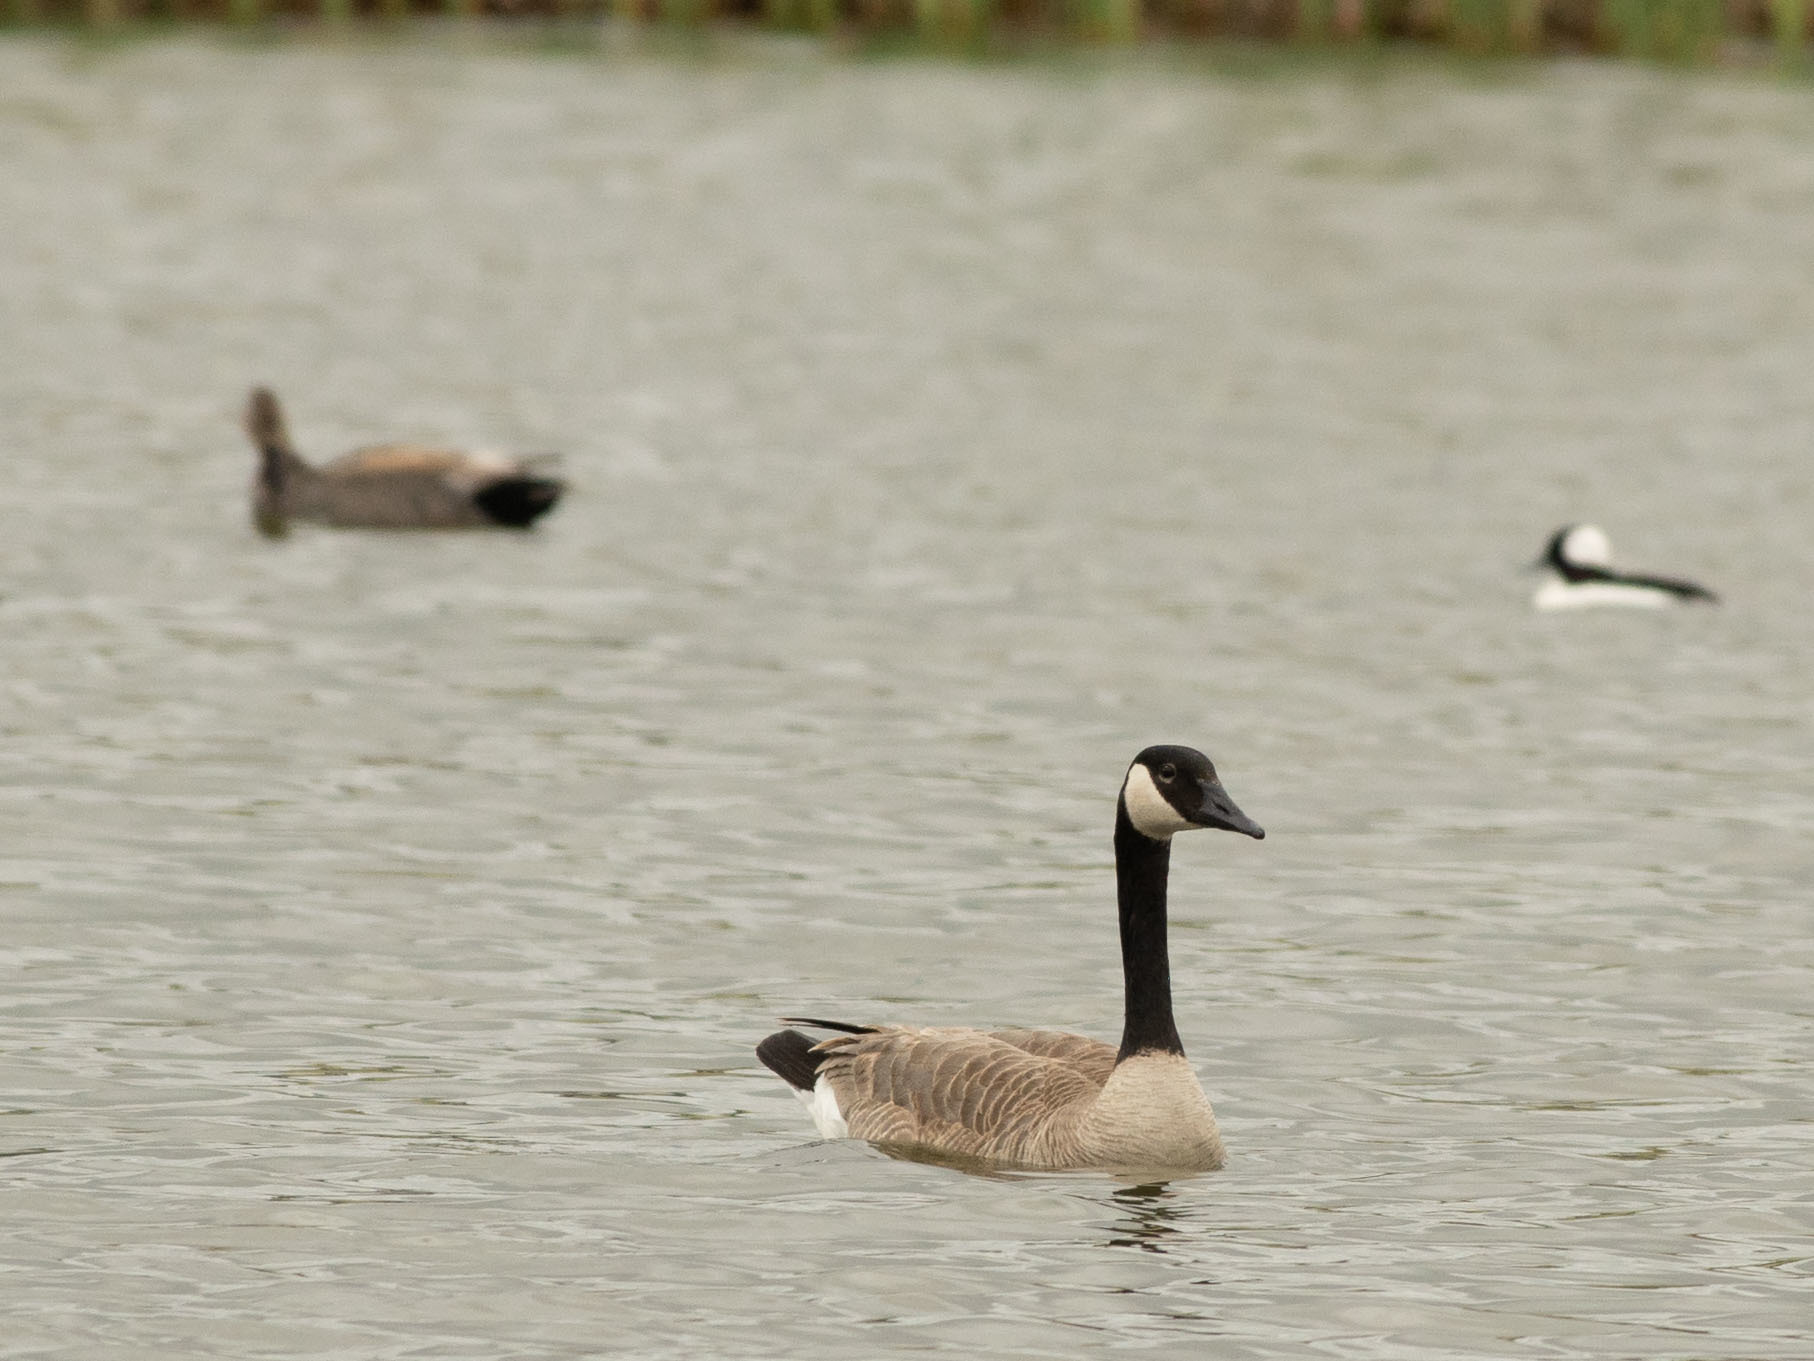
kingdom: Animalia
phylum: Chordata
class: Aves
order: Anseriformes
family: Anatidae
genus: Branta
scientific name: Branta canadensis
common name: Canada goose
